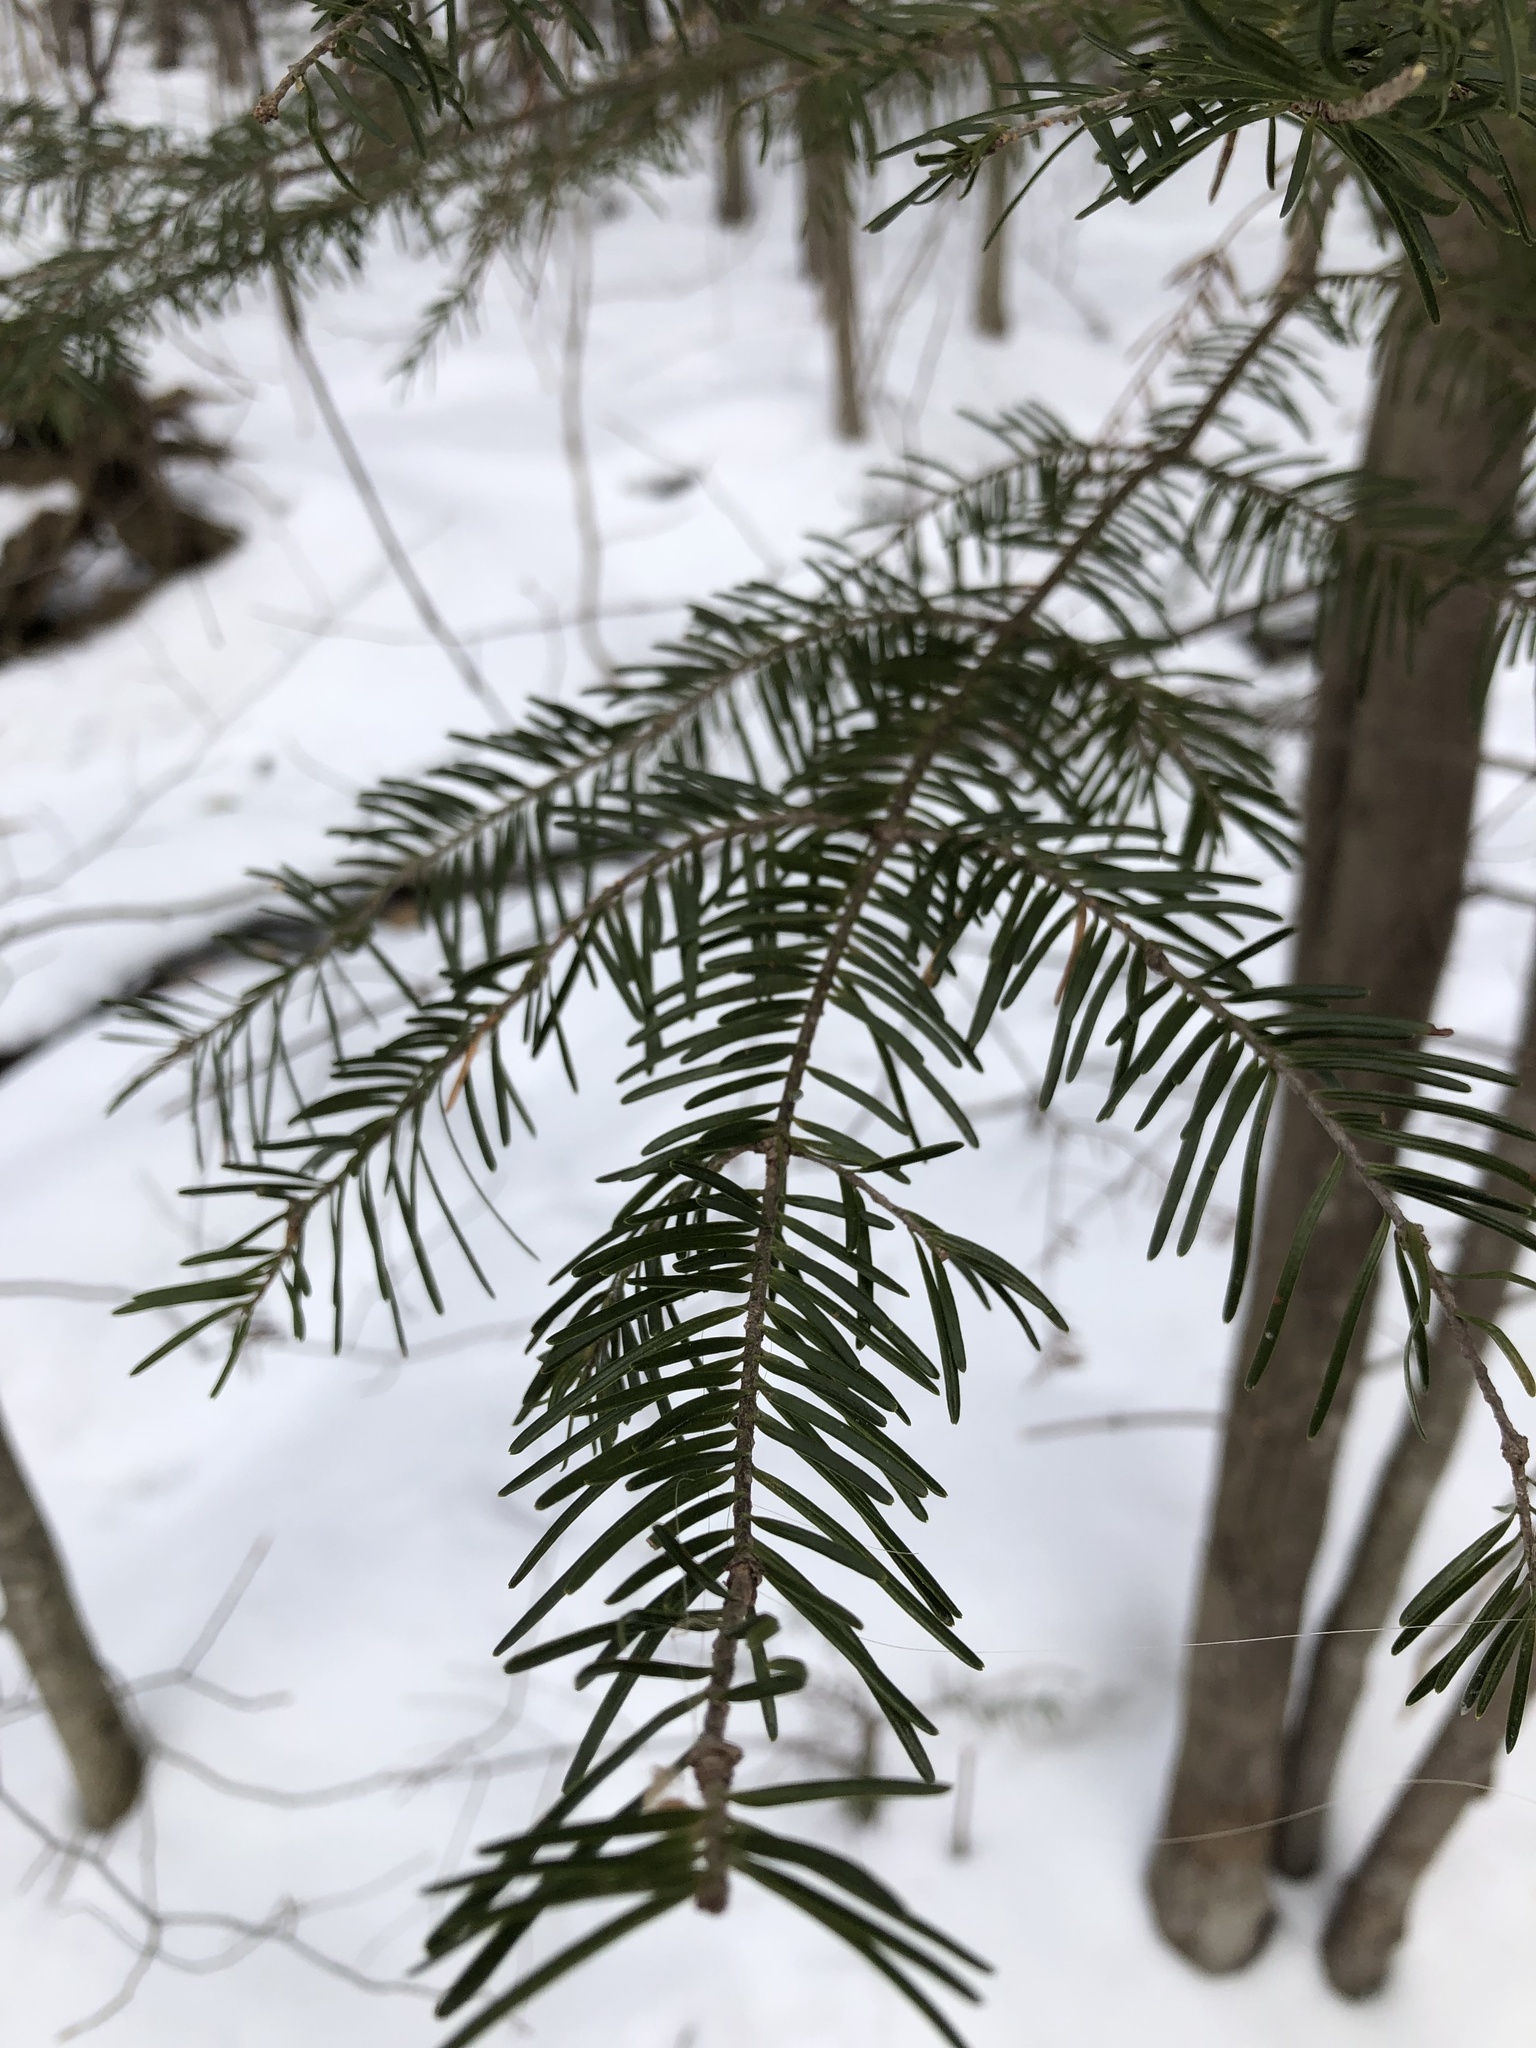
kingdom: Plantae
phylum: Tracheophyta
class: Pinopsida
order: Pinales
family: Pinaceae
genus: Abies
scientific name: Abies balsamea
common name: Balsam fir
